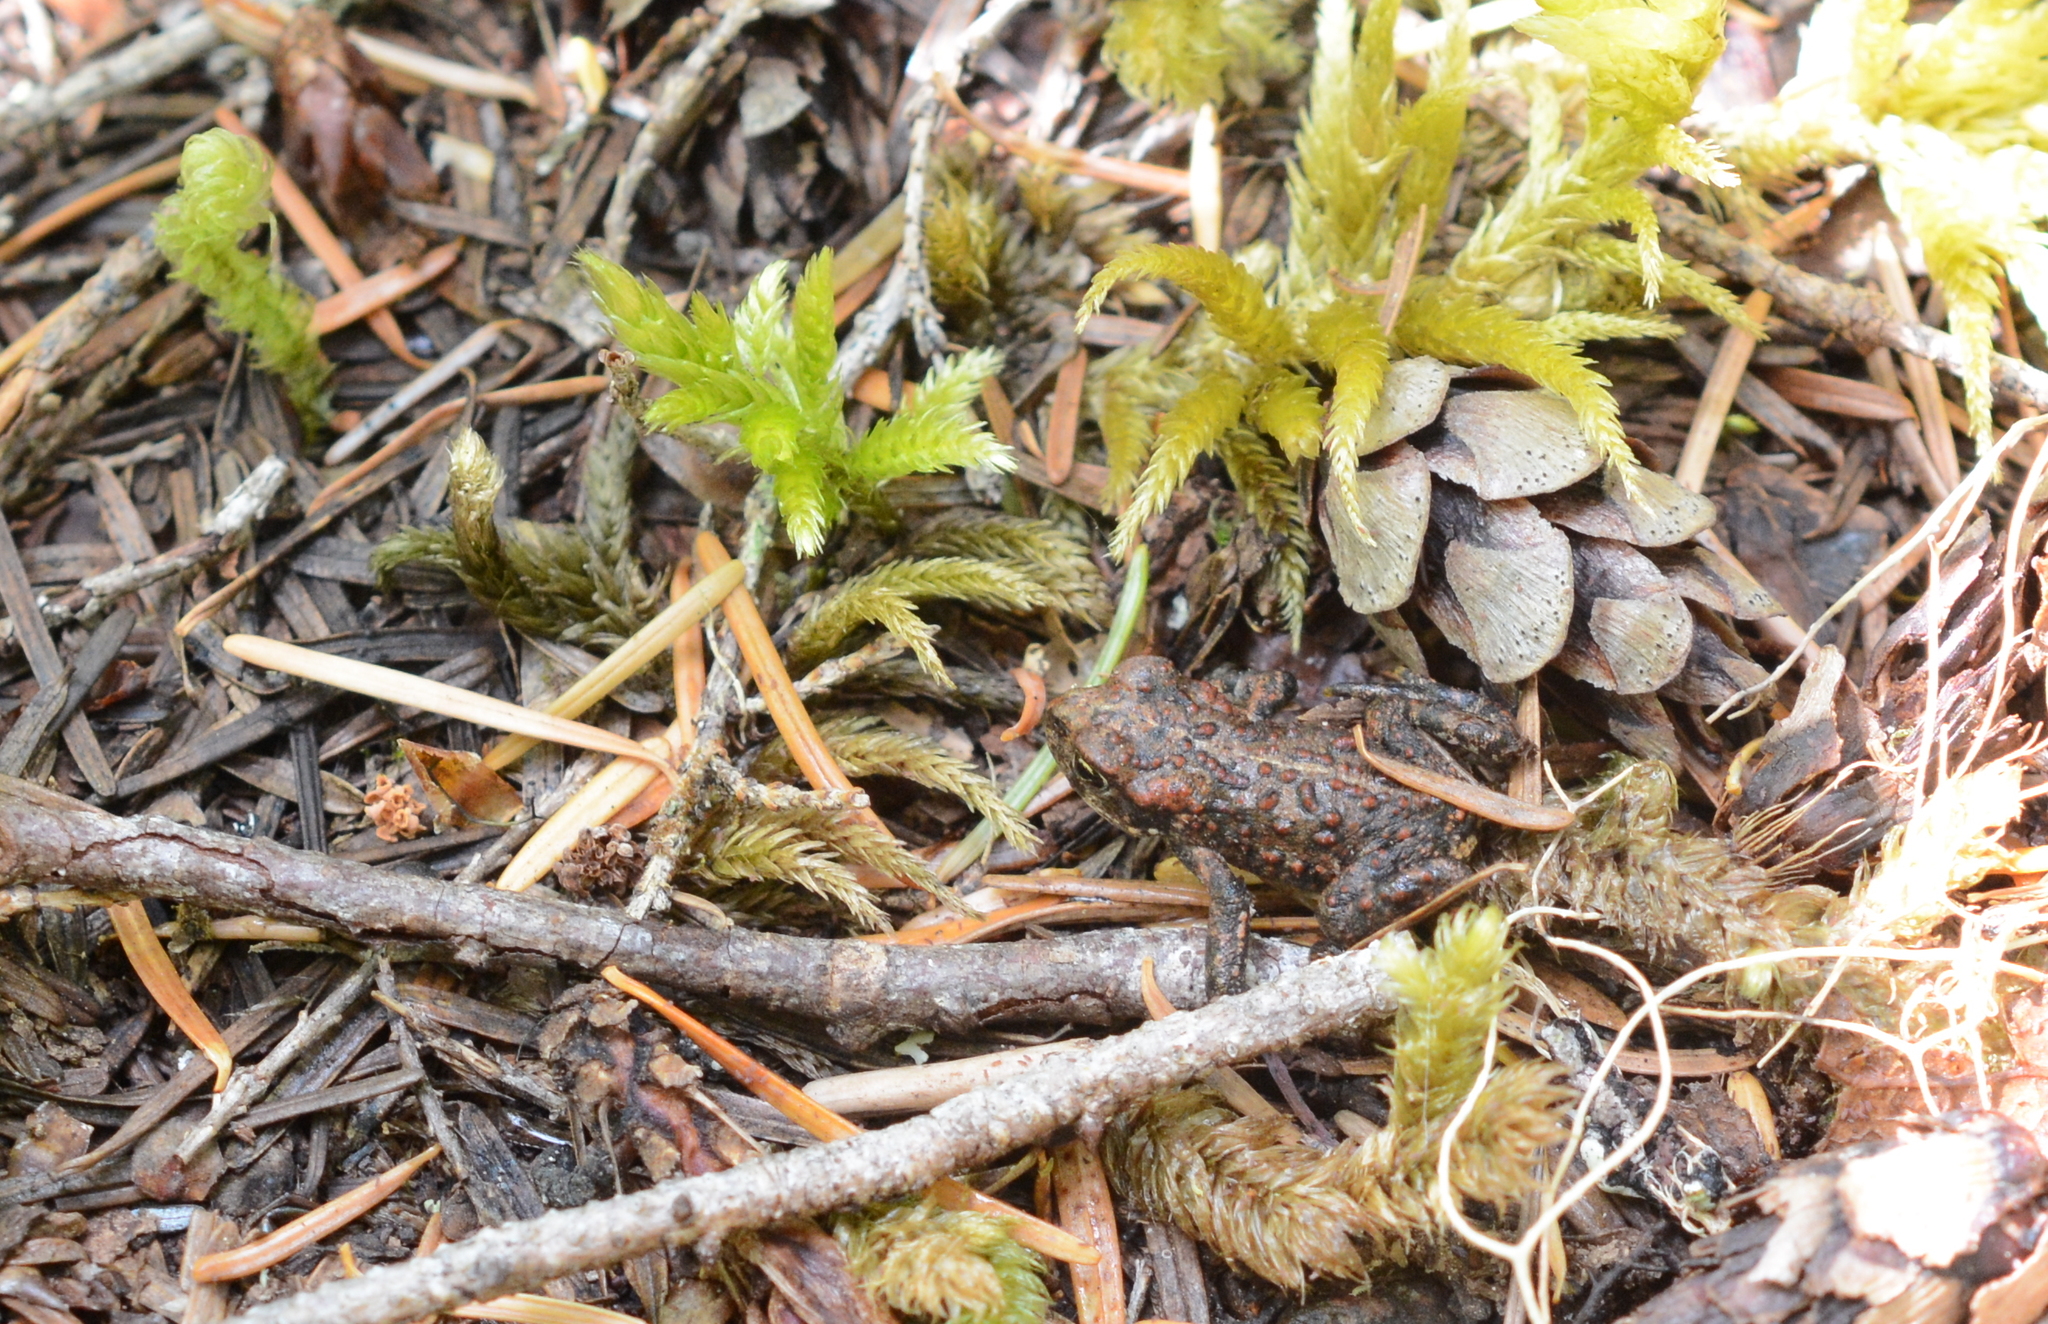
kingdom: Animalia
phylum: Chordata
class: Amphibia
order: Anura
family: Bufonidae
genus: Anaxyrus
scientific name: Anaxyrus boreas
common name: Western toad
